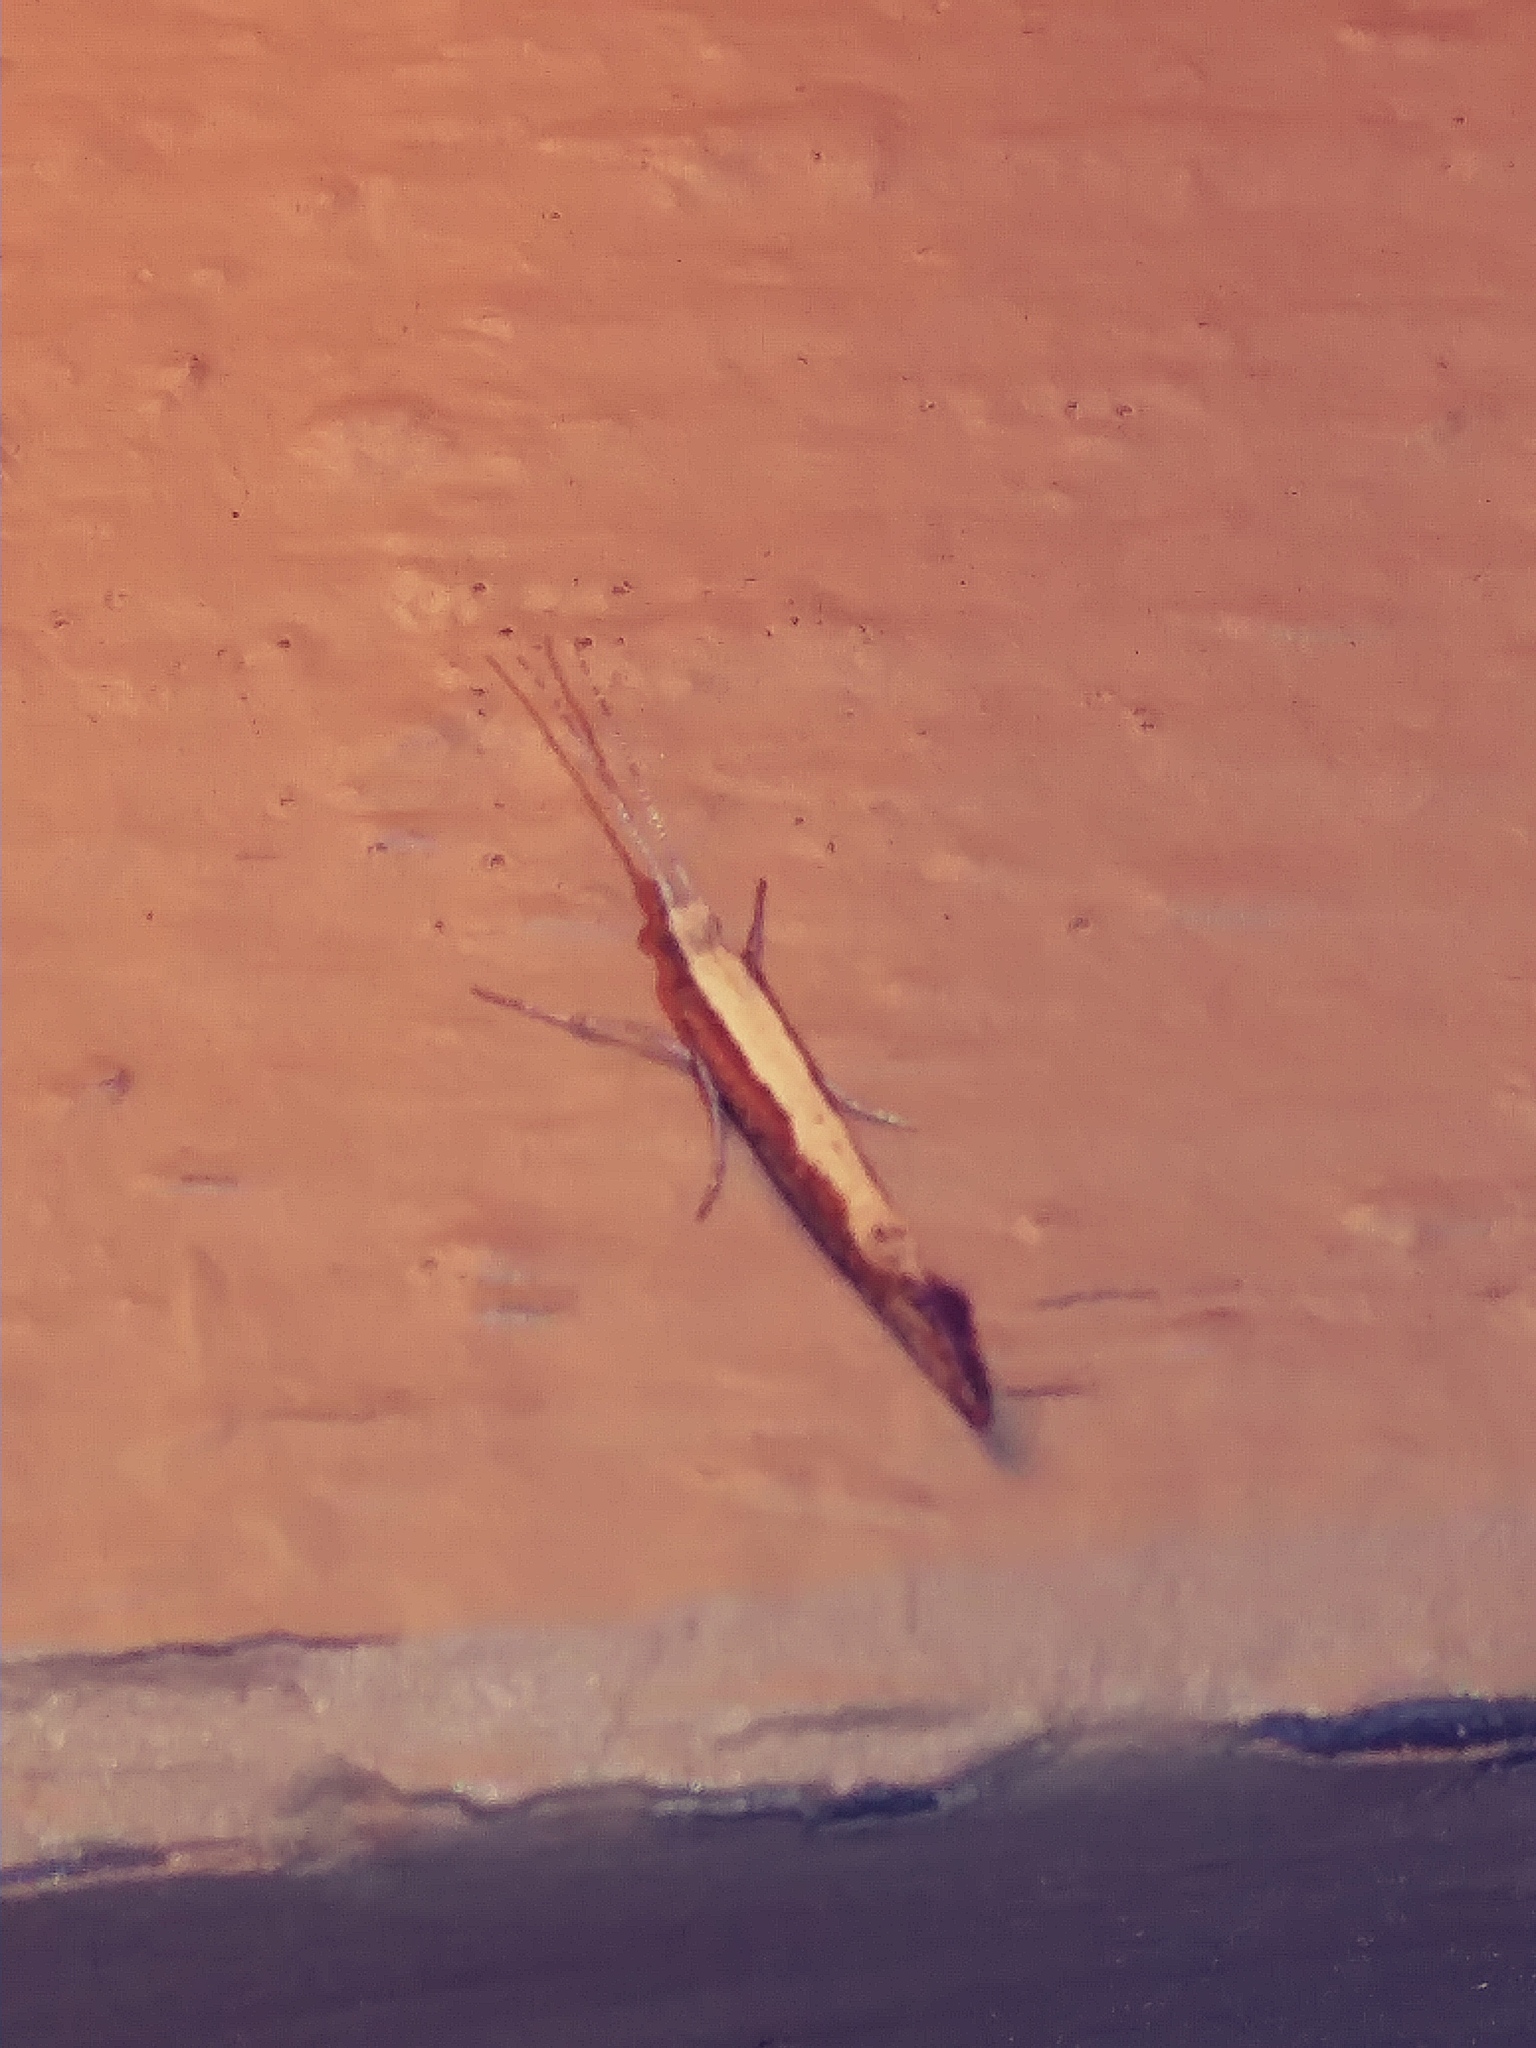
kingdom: Animalia
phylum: Arthropoda
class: Insecta
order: Lepidoptera
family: Plutellidae
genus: Plutella
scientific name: Plutella xylostella
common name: Diamond-back moth
